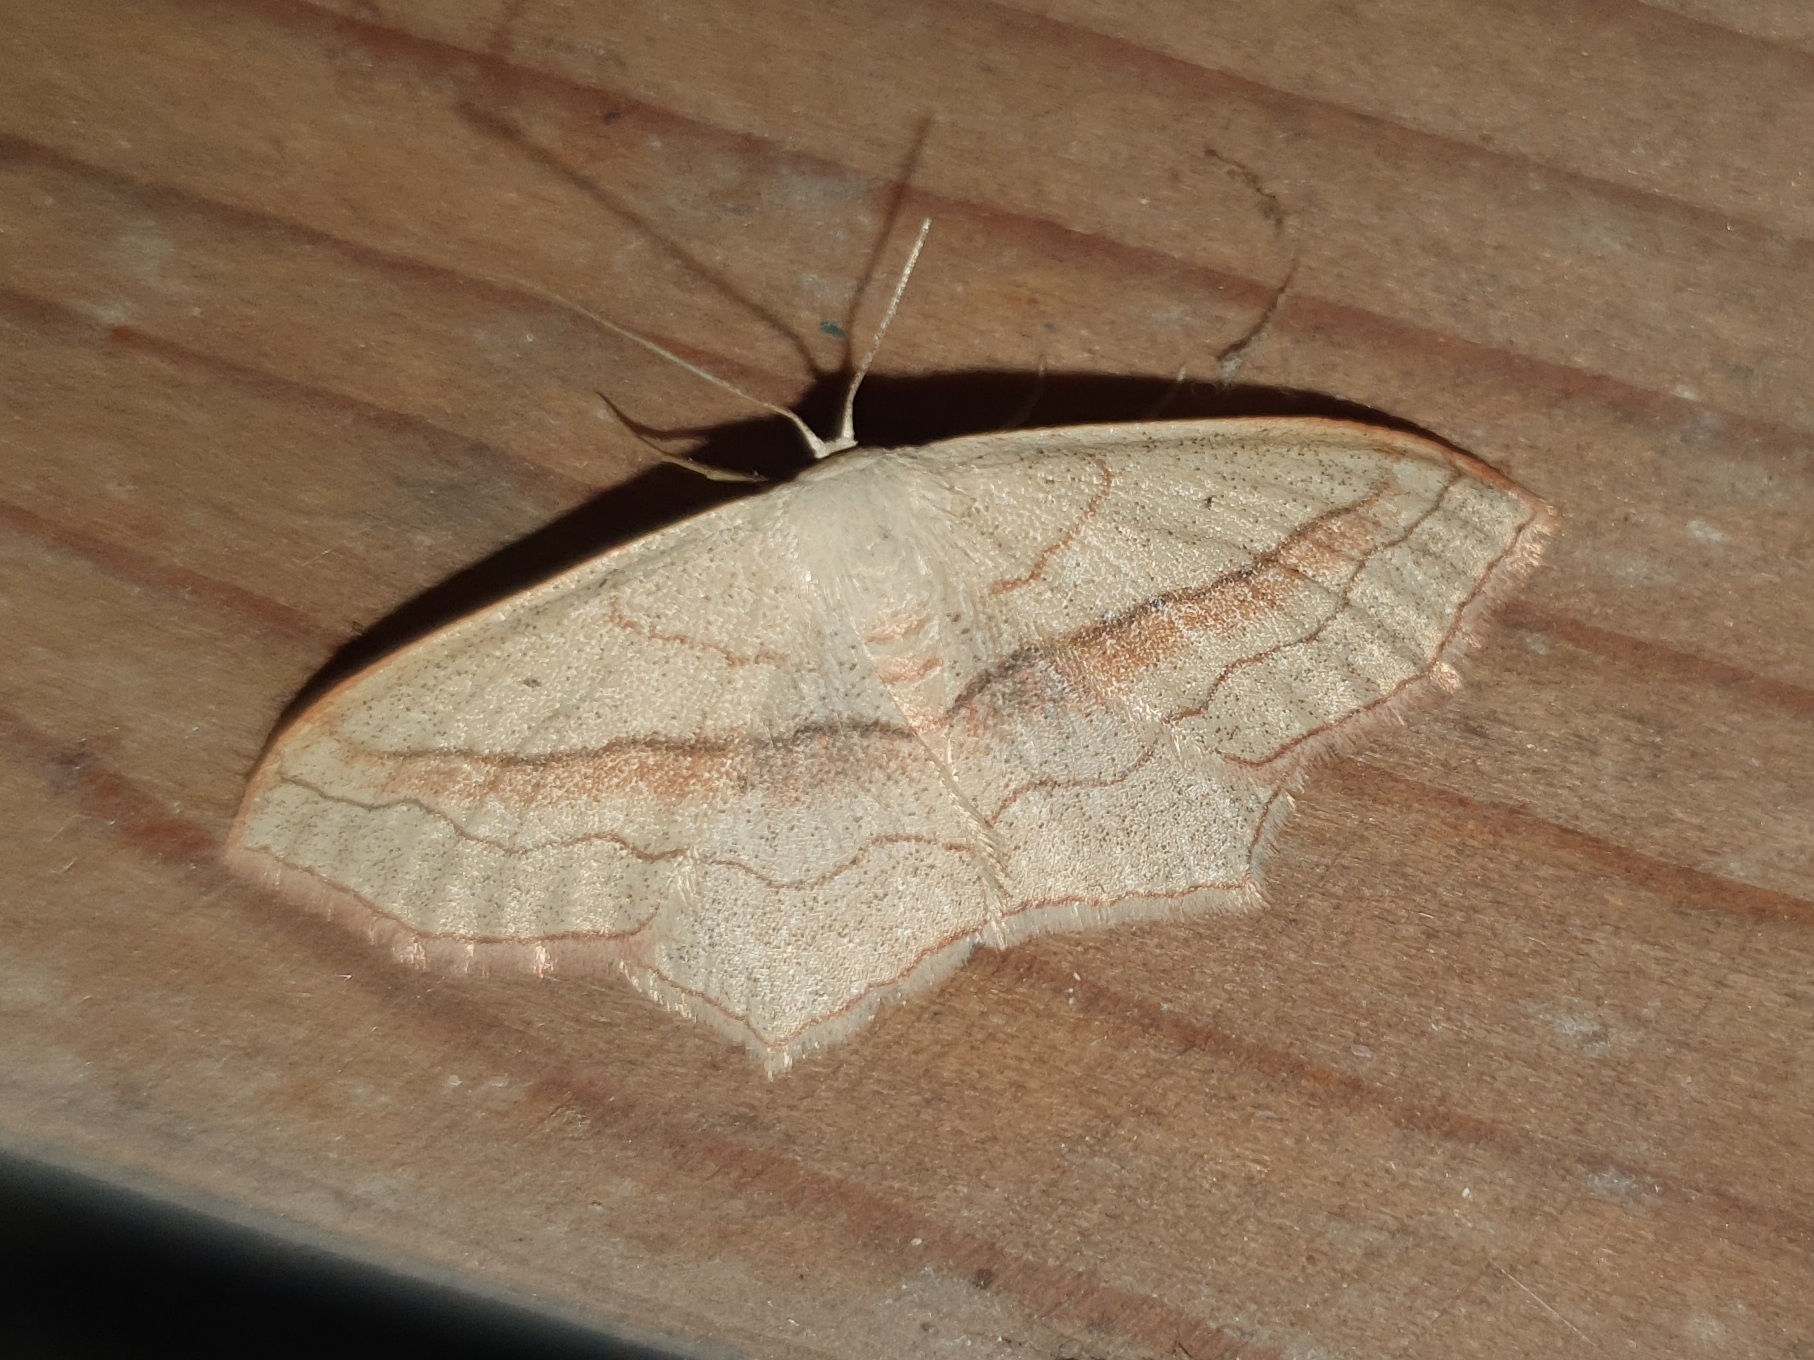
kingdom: Animalia
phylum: Arthropoda
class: Insecta
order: Lepidoptera
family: Geometridae
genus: Scopula
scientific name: Scopula imitaria
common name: Small blood-vein
